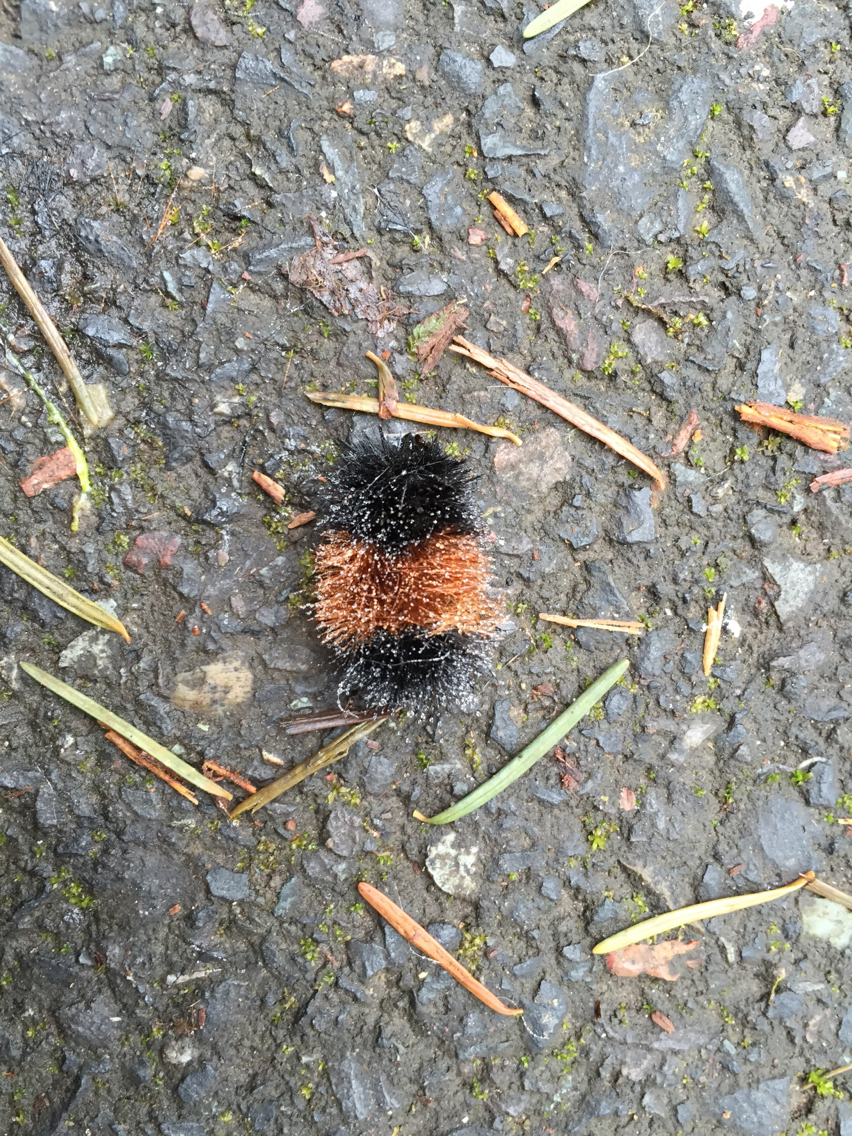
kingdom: Animalia
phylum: Arthropoda
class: Insecta
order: Lepidoptera
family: Erebidae
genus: Pyrrharctia
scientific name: Pyrrharctia isabella
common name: Isabella tiger moth
